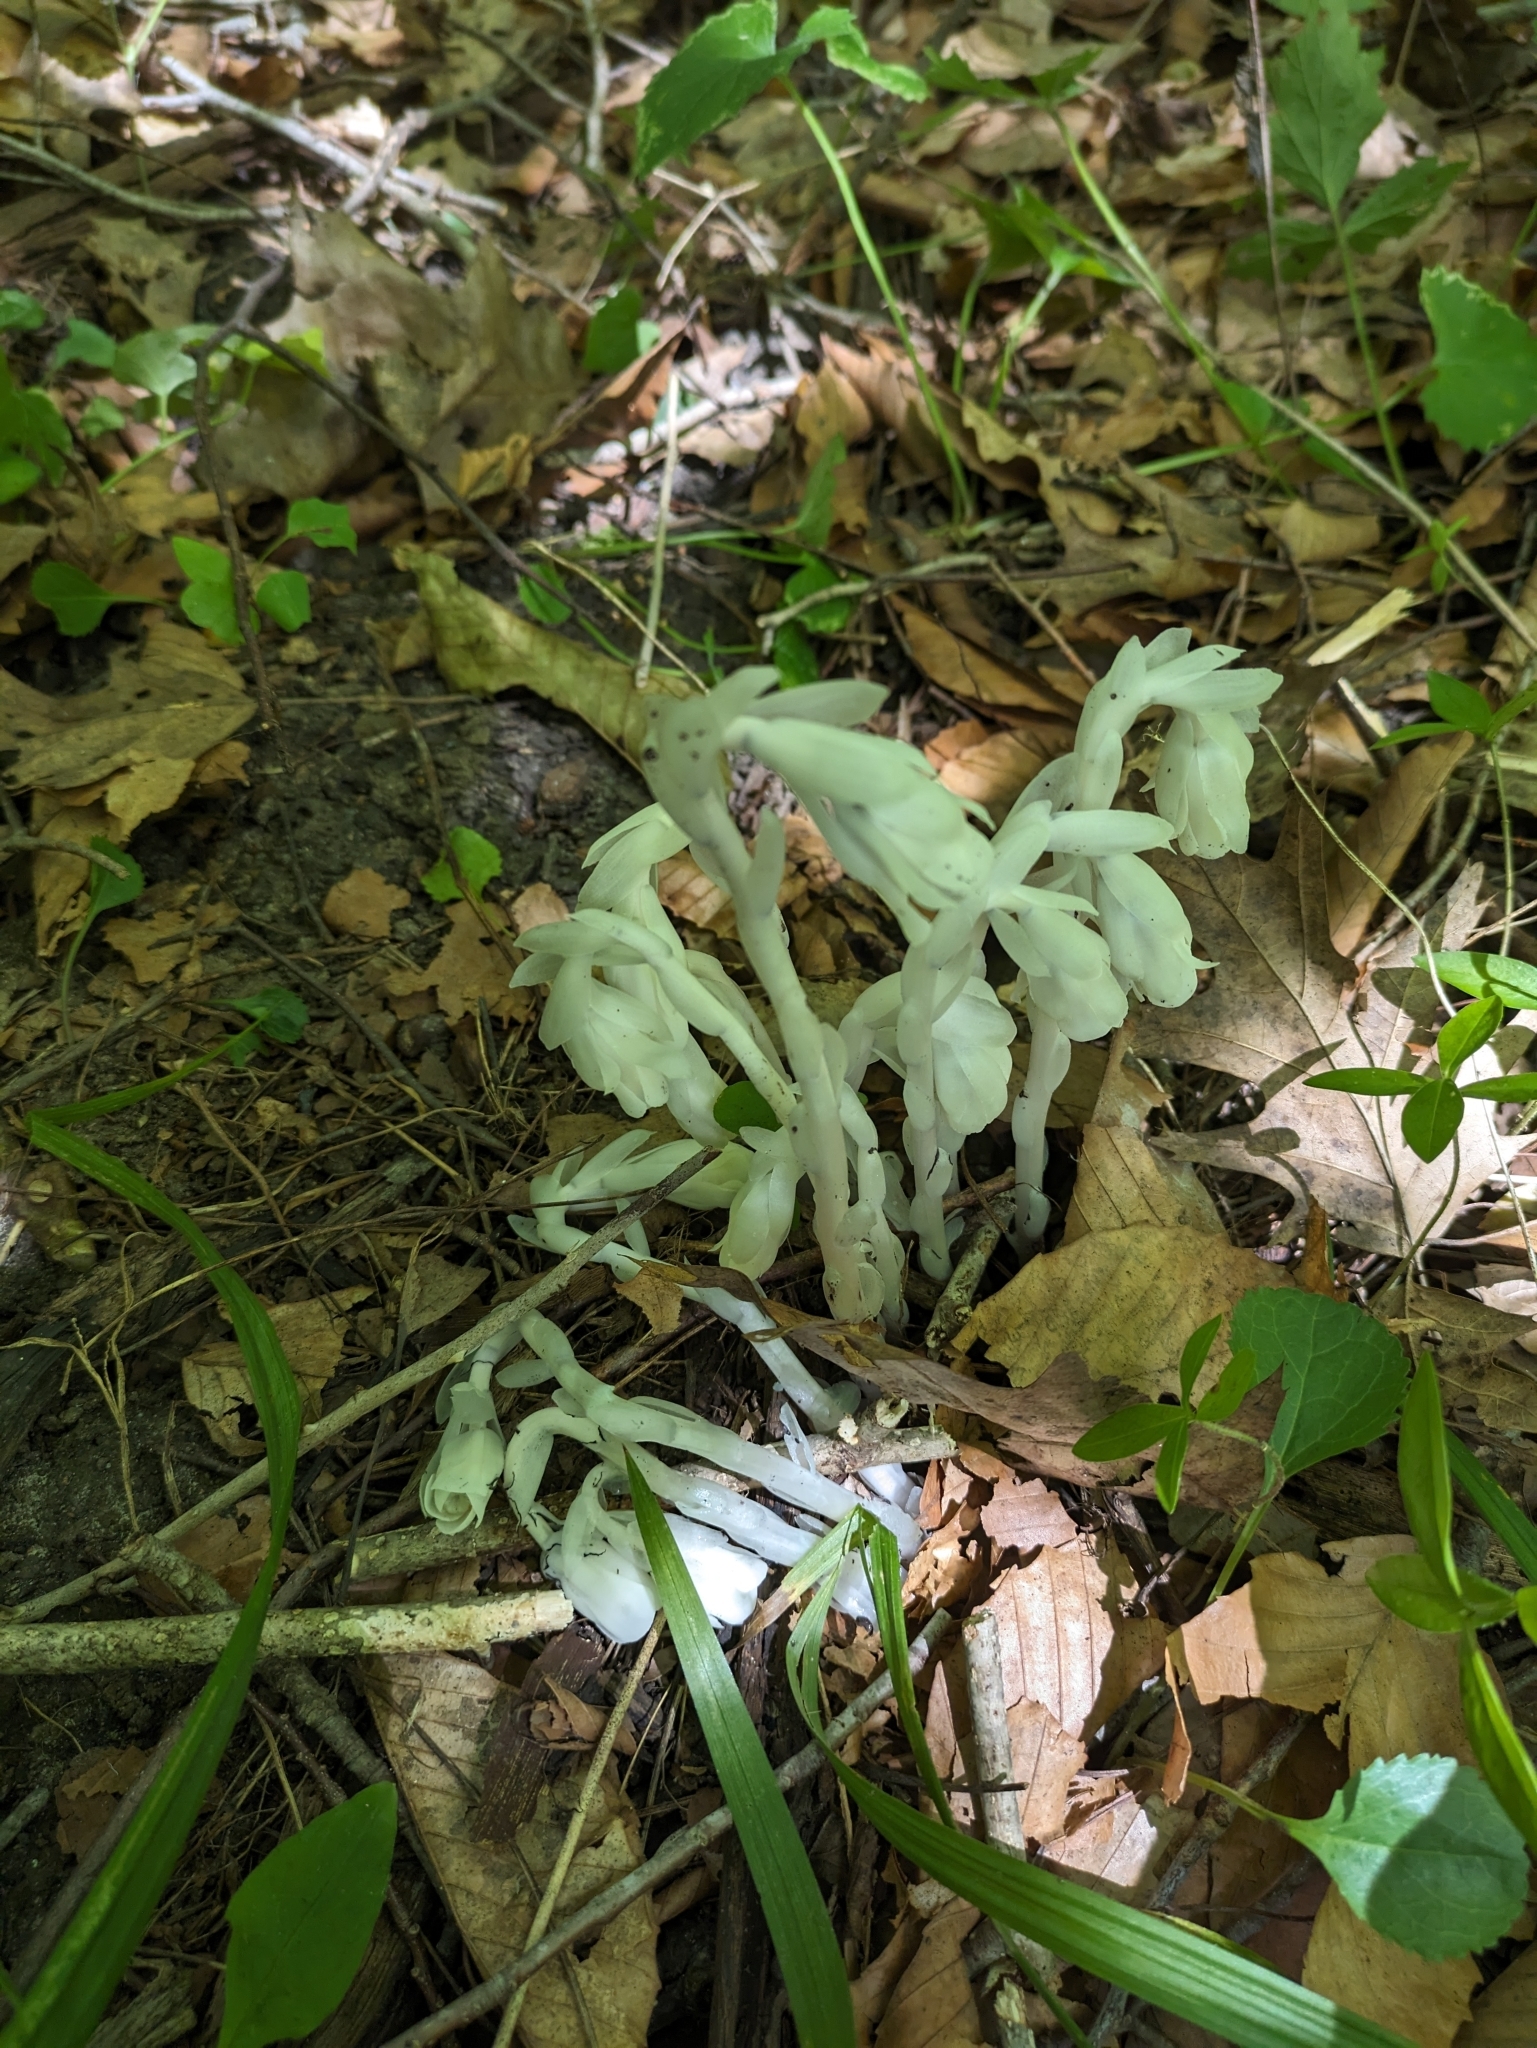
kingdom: Plantae
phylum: Tracheophyta
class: Magnoliopsida
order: Ericales
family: Ericaceae
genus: Monotropa
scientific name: Monotropa uniflora
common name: Convulsion root
